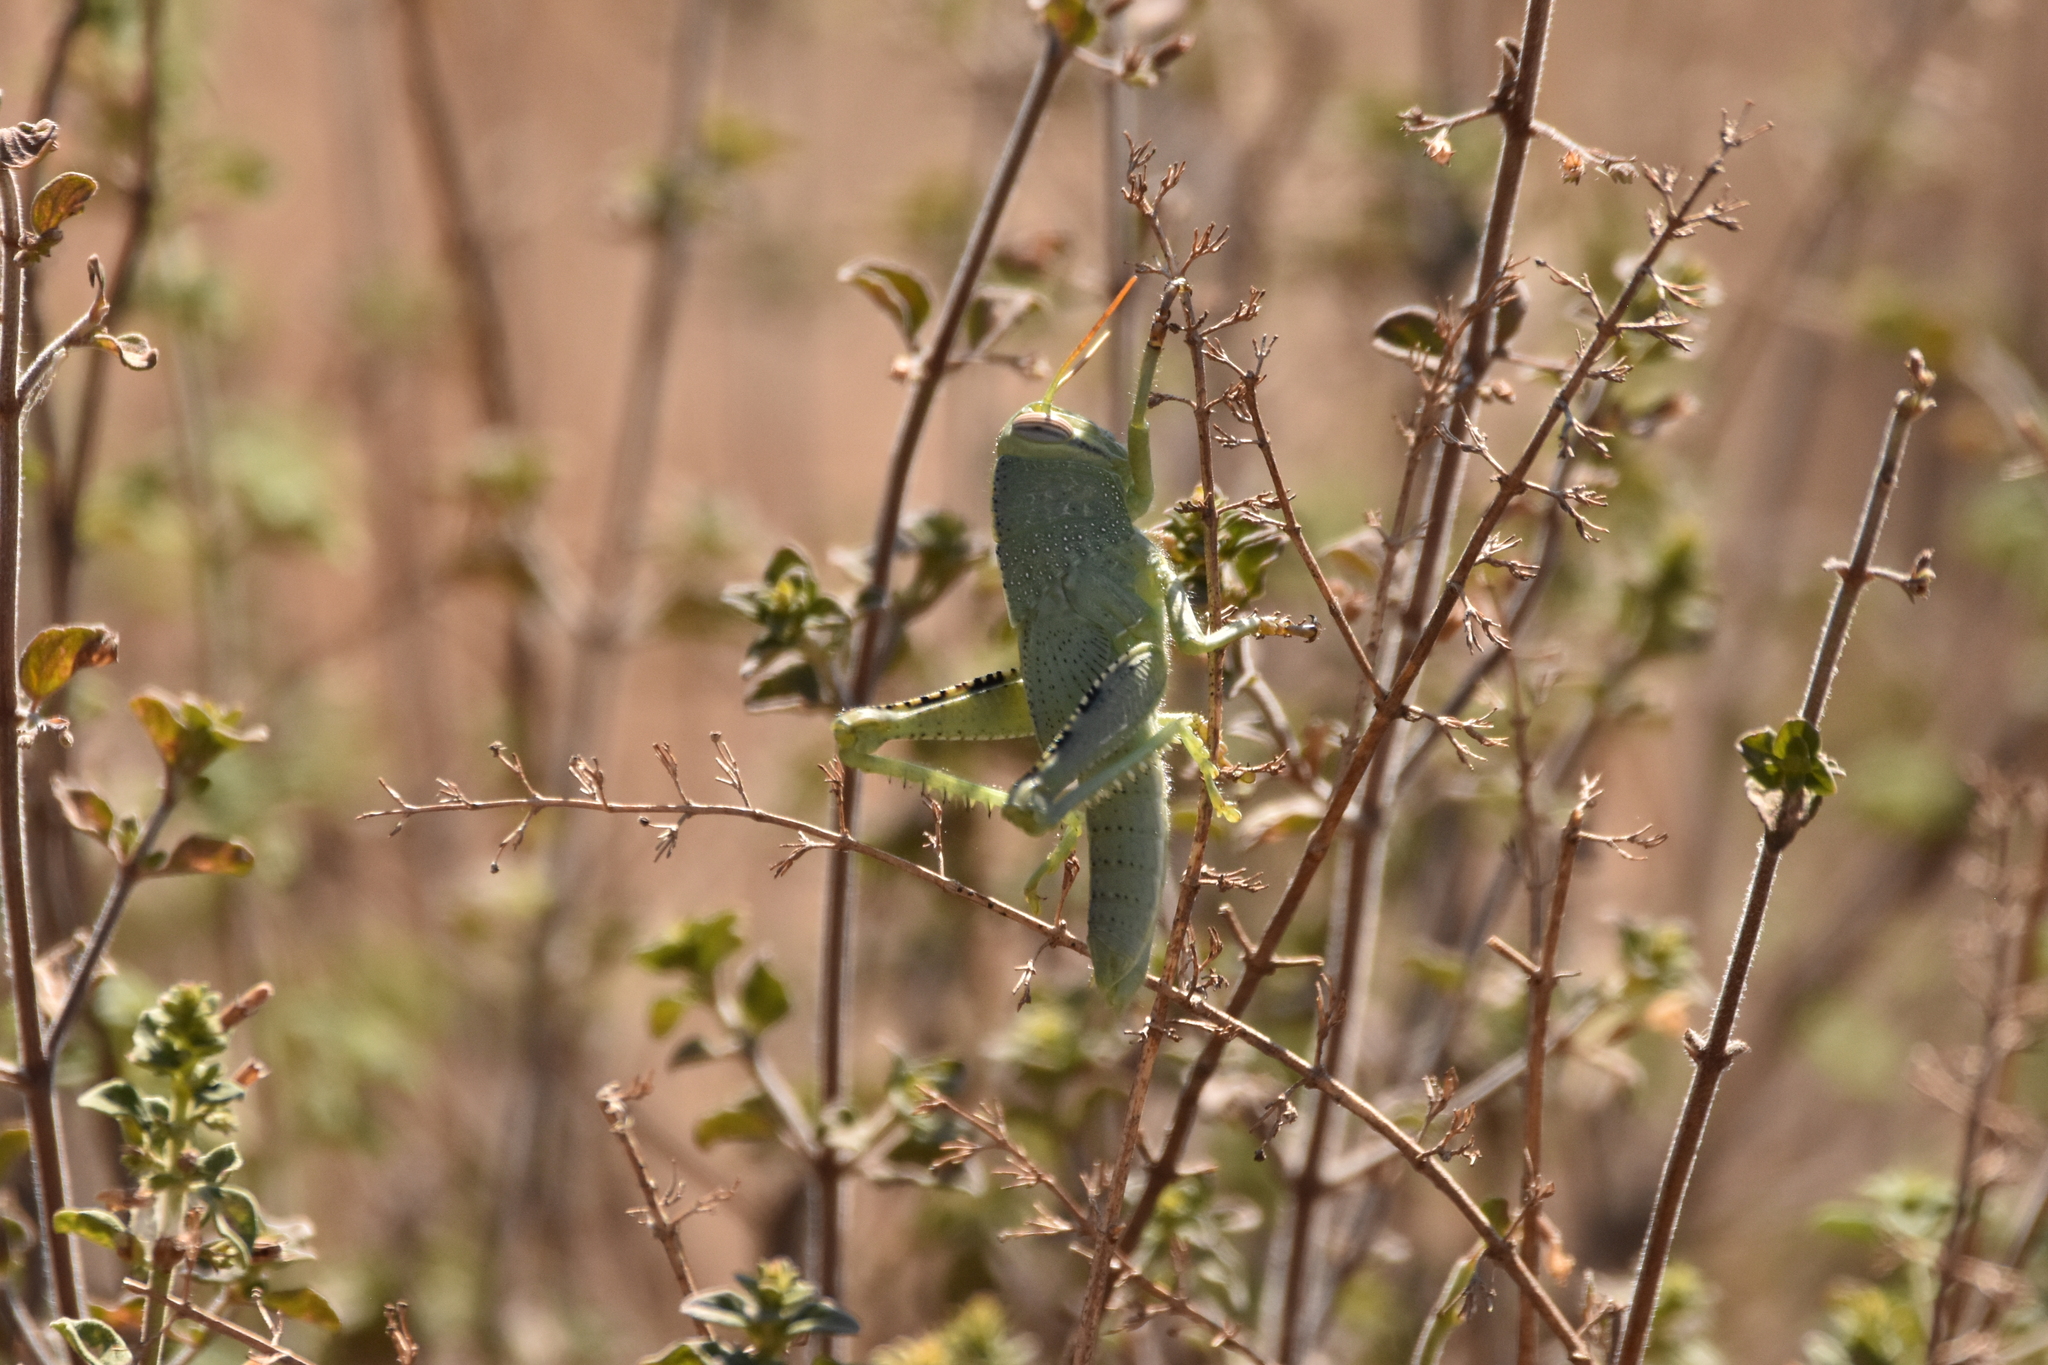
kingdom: Animalia
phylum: Arthropoda
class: Insecta
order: Orthoptera
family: Acrididae
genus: Anacridium
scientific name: Anacridium aegyptium
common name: Egyptian grasshopper
